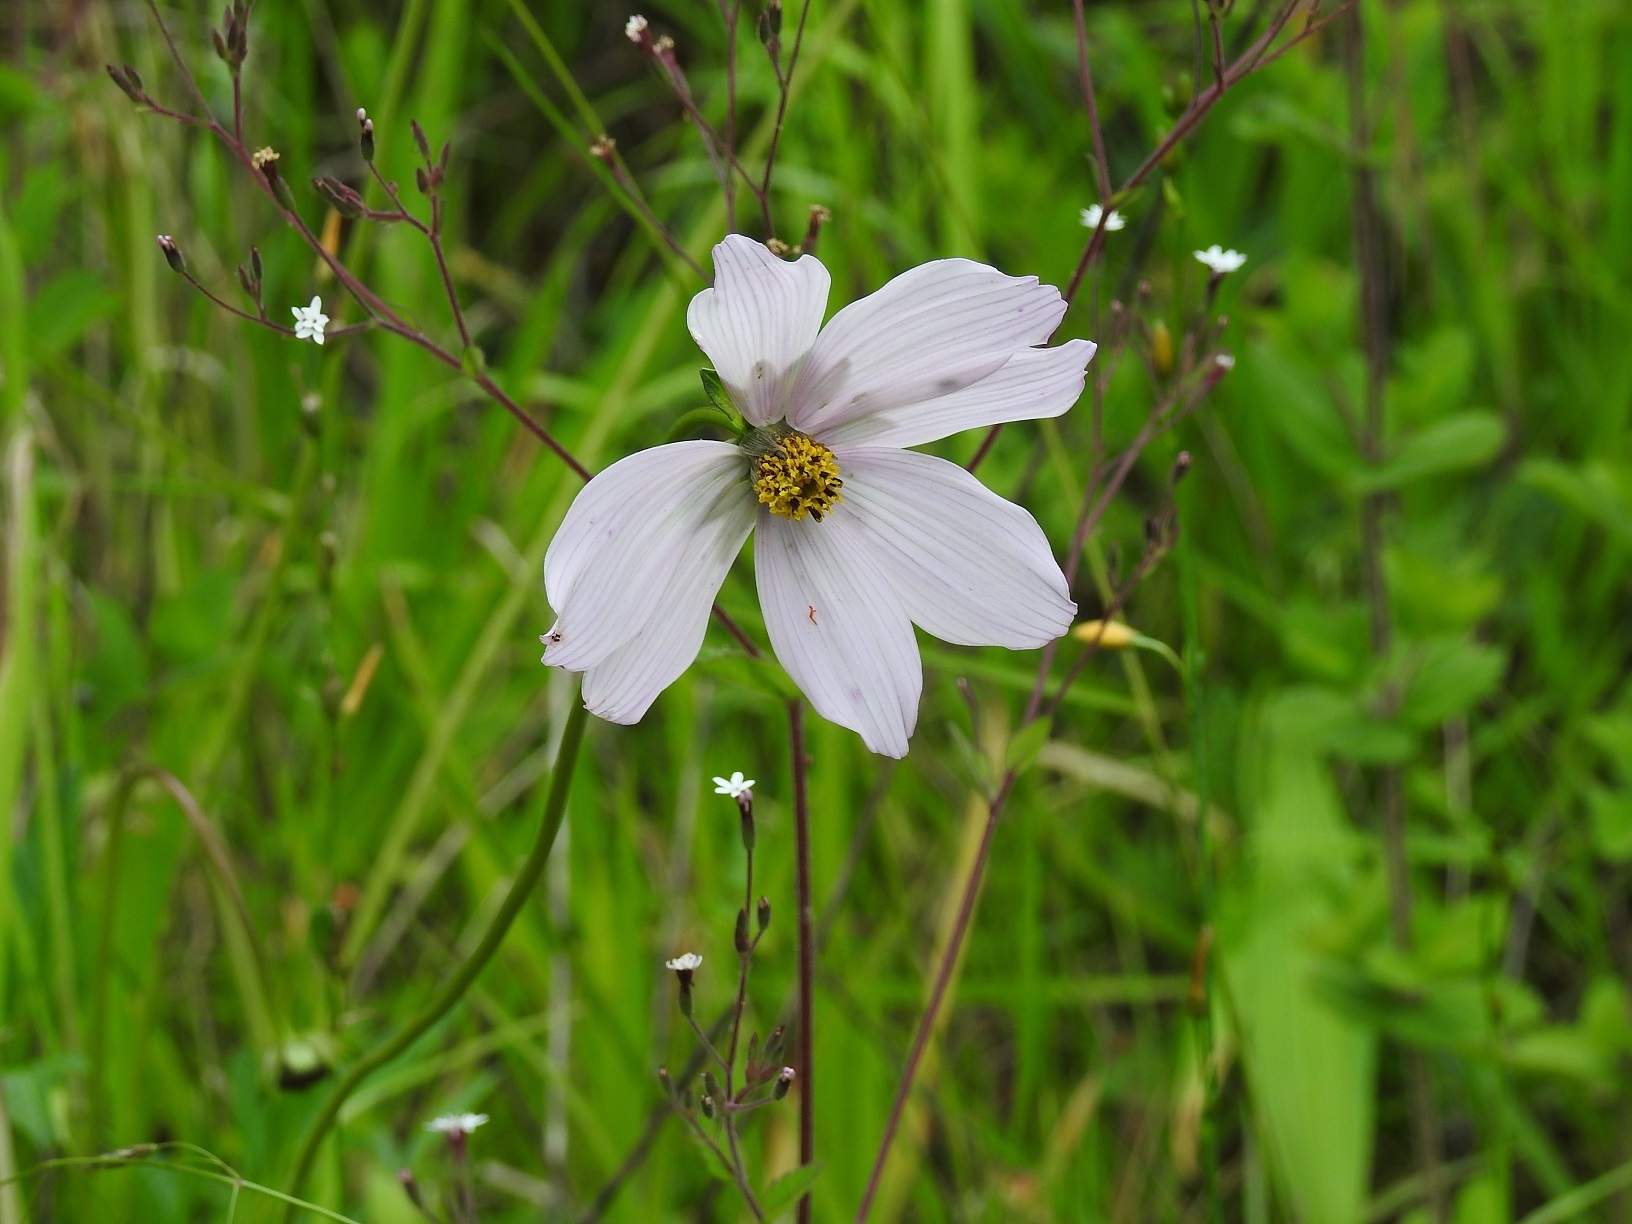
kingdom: Plantae
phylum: Tracheophyta
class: Magnoliopsida
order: Asterales
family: Asteraceae
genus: Cosmos
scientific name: Cosmos diversifolius
